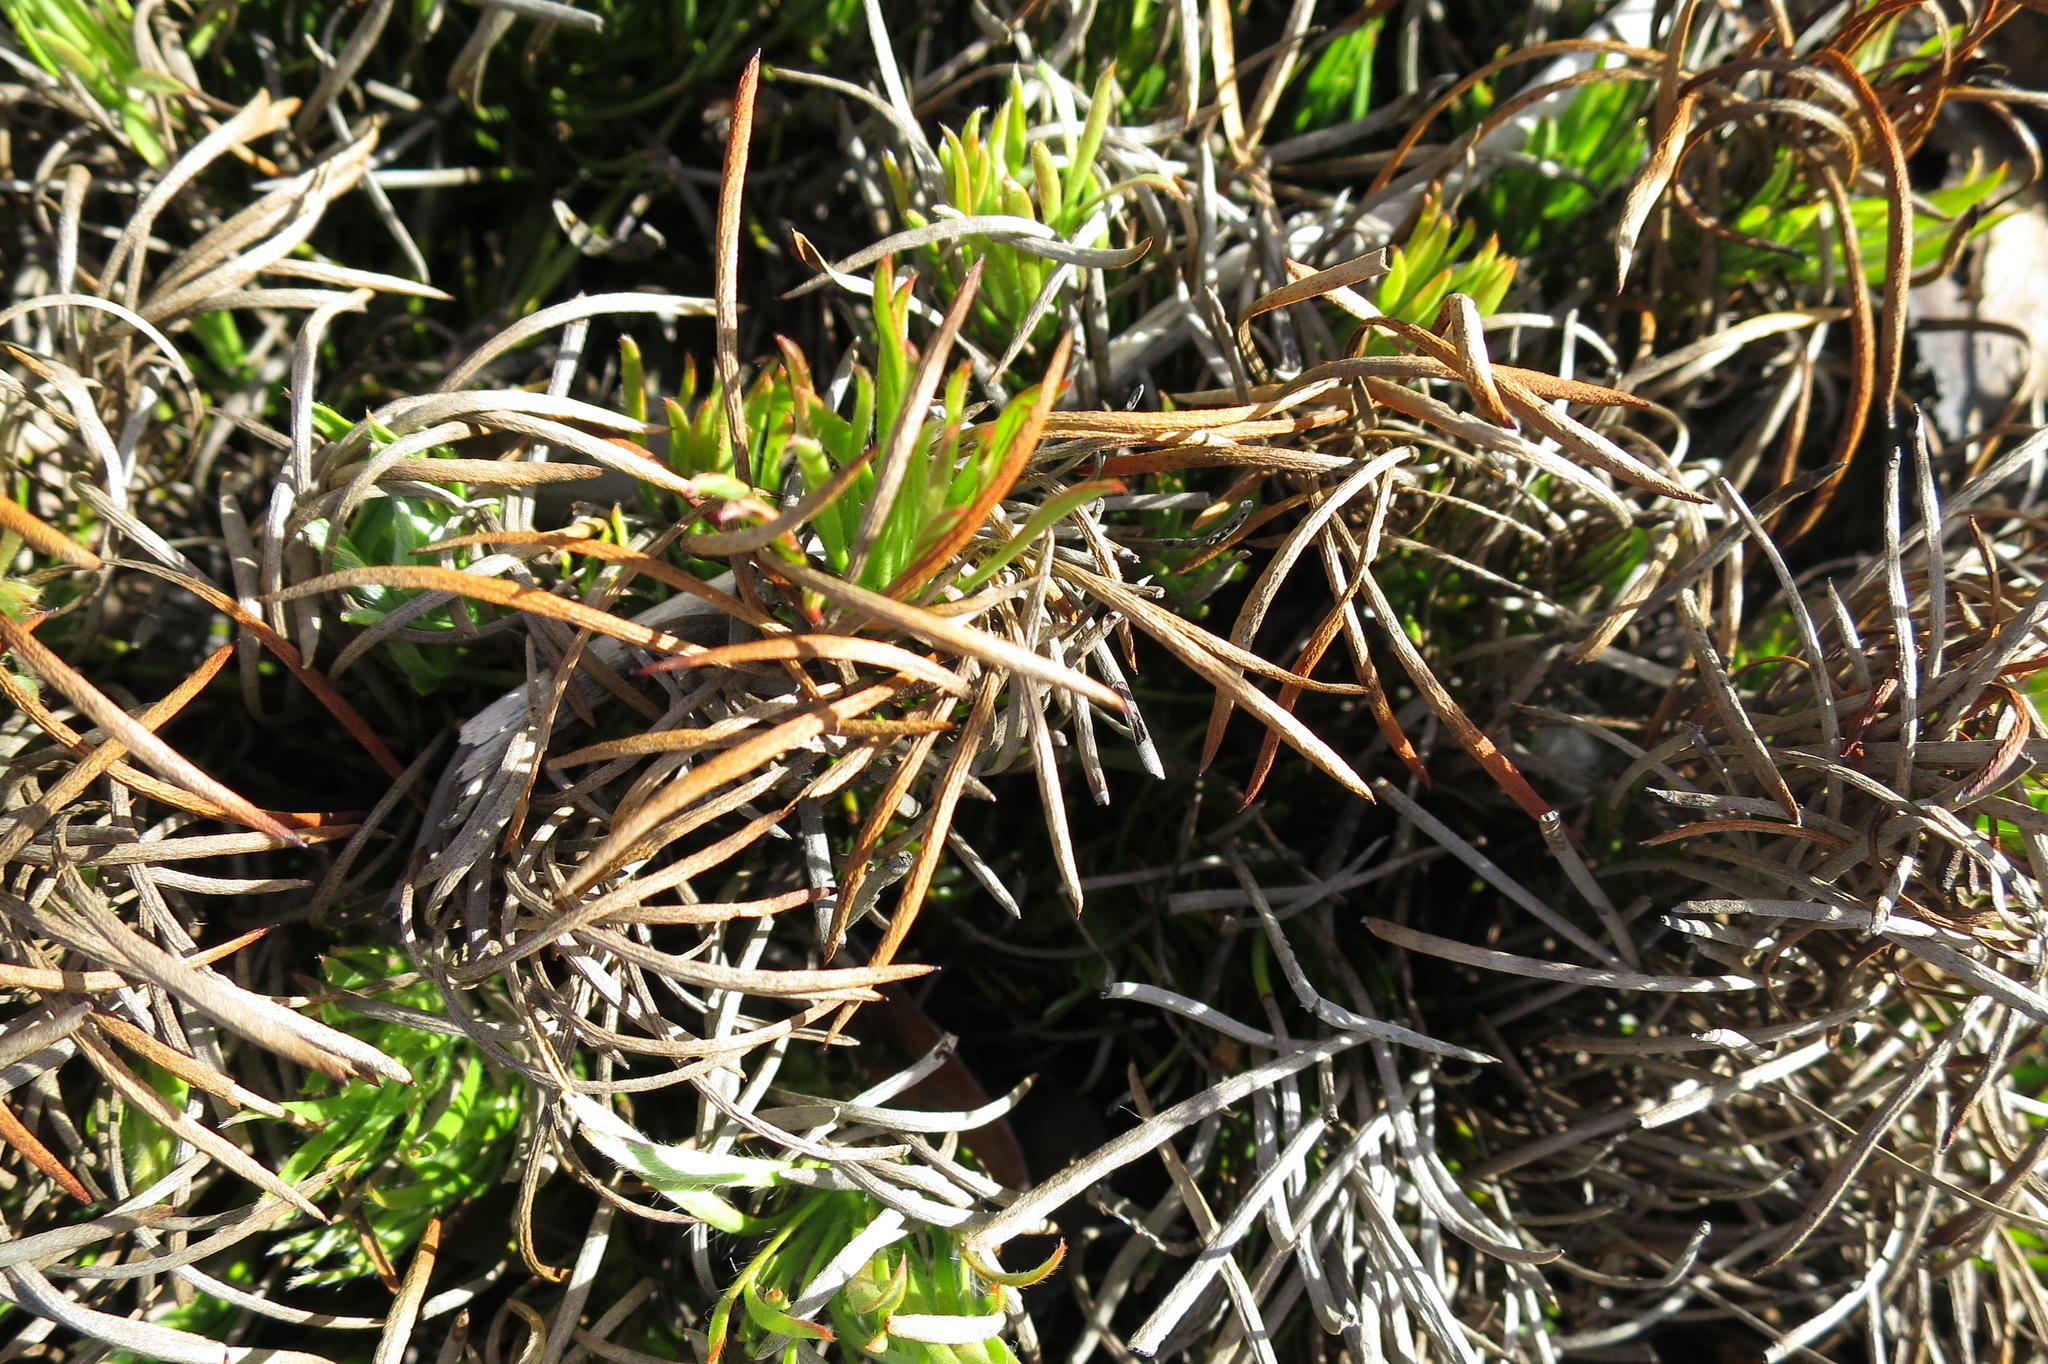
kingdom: Plantae
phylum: Tracheophyta
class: Magnoliopsida
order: Proteales
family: Proteaceae
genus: Protea
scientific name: Protea montana
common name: Swartberg sugarbush
